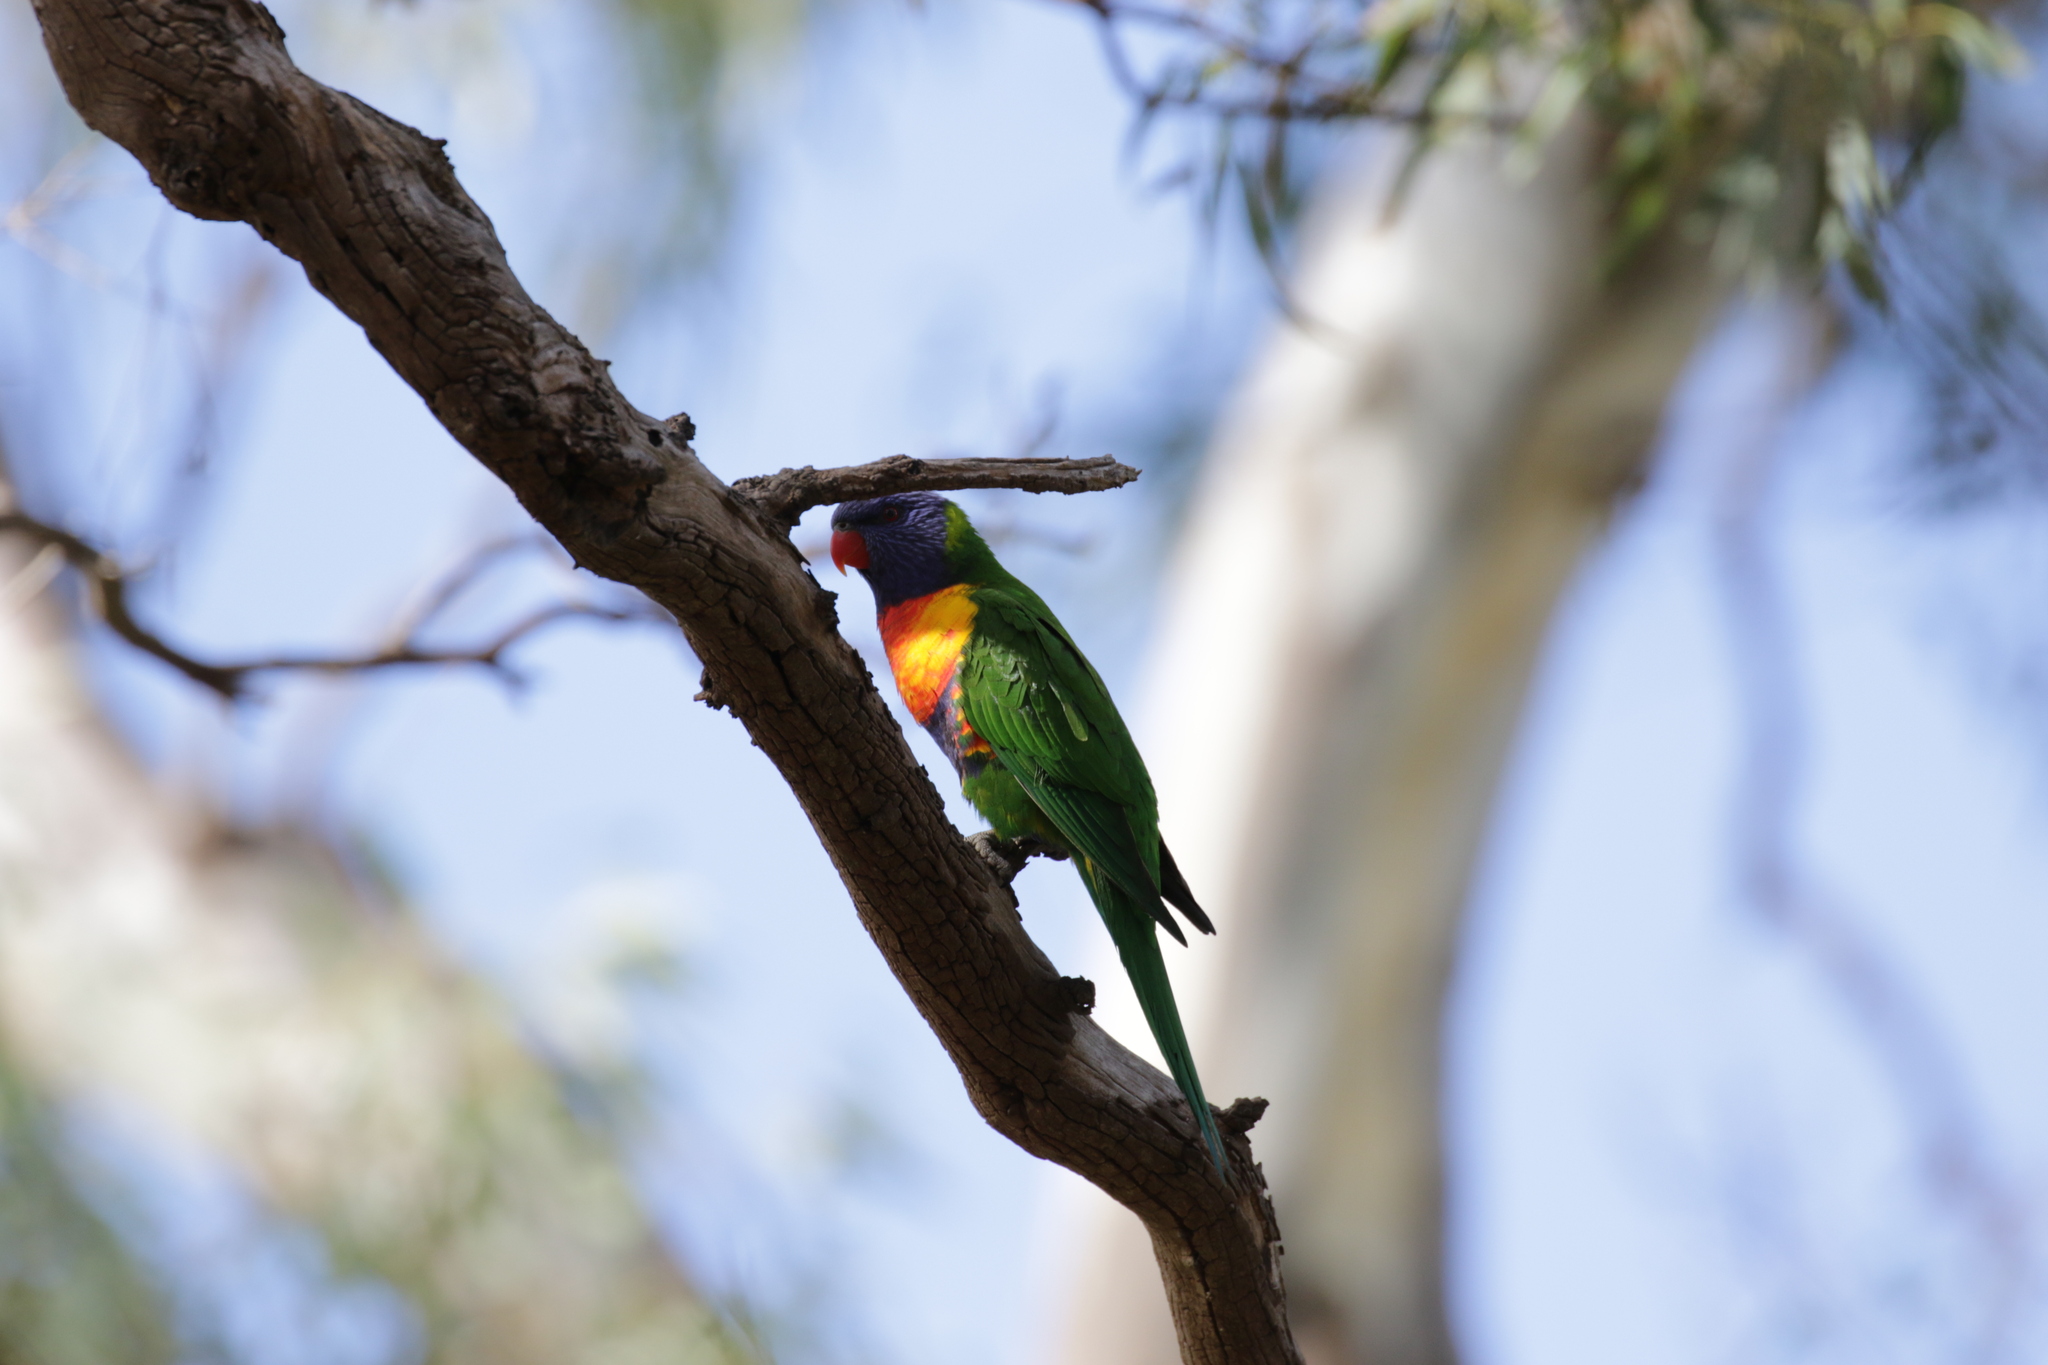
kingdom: Animalia
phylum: Chordata
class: Aves
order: Psittaciformes
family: Psittacidae
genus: Trichoglossus
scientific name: Trichoglossus haematodus
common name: Coconut lorikeet
